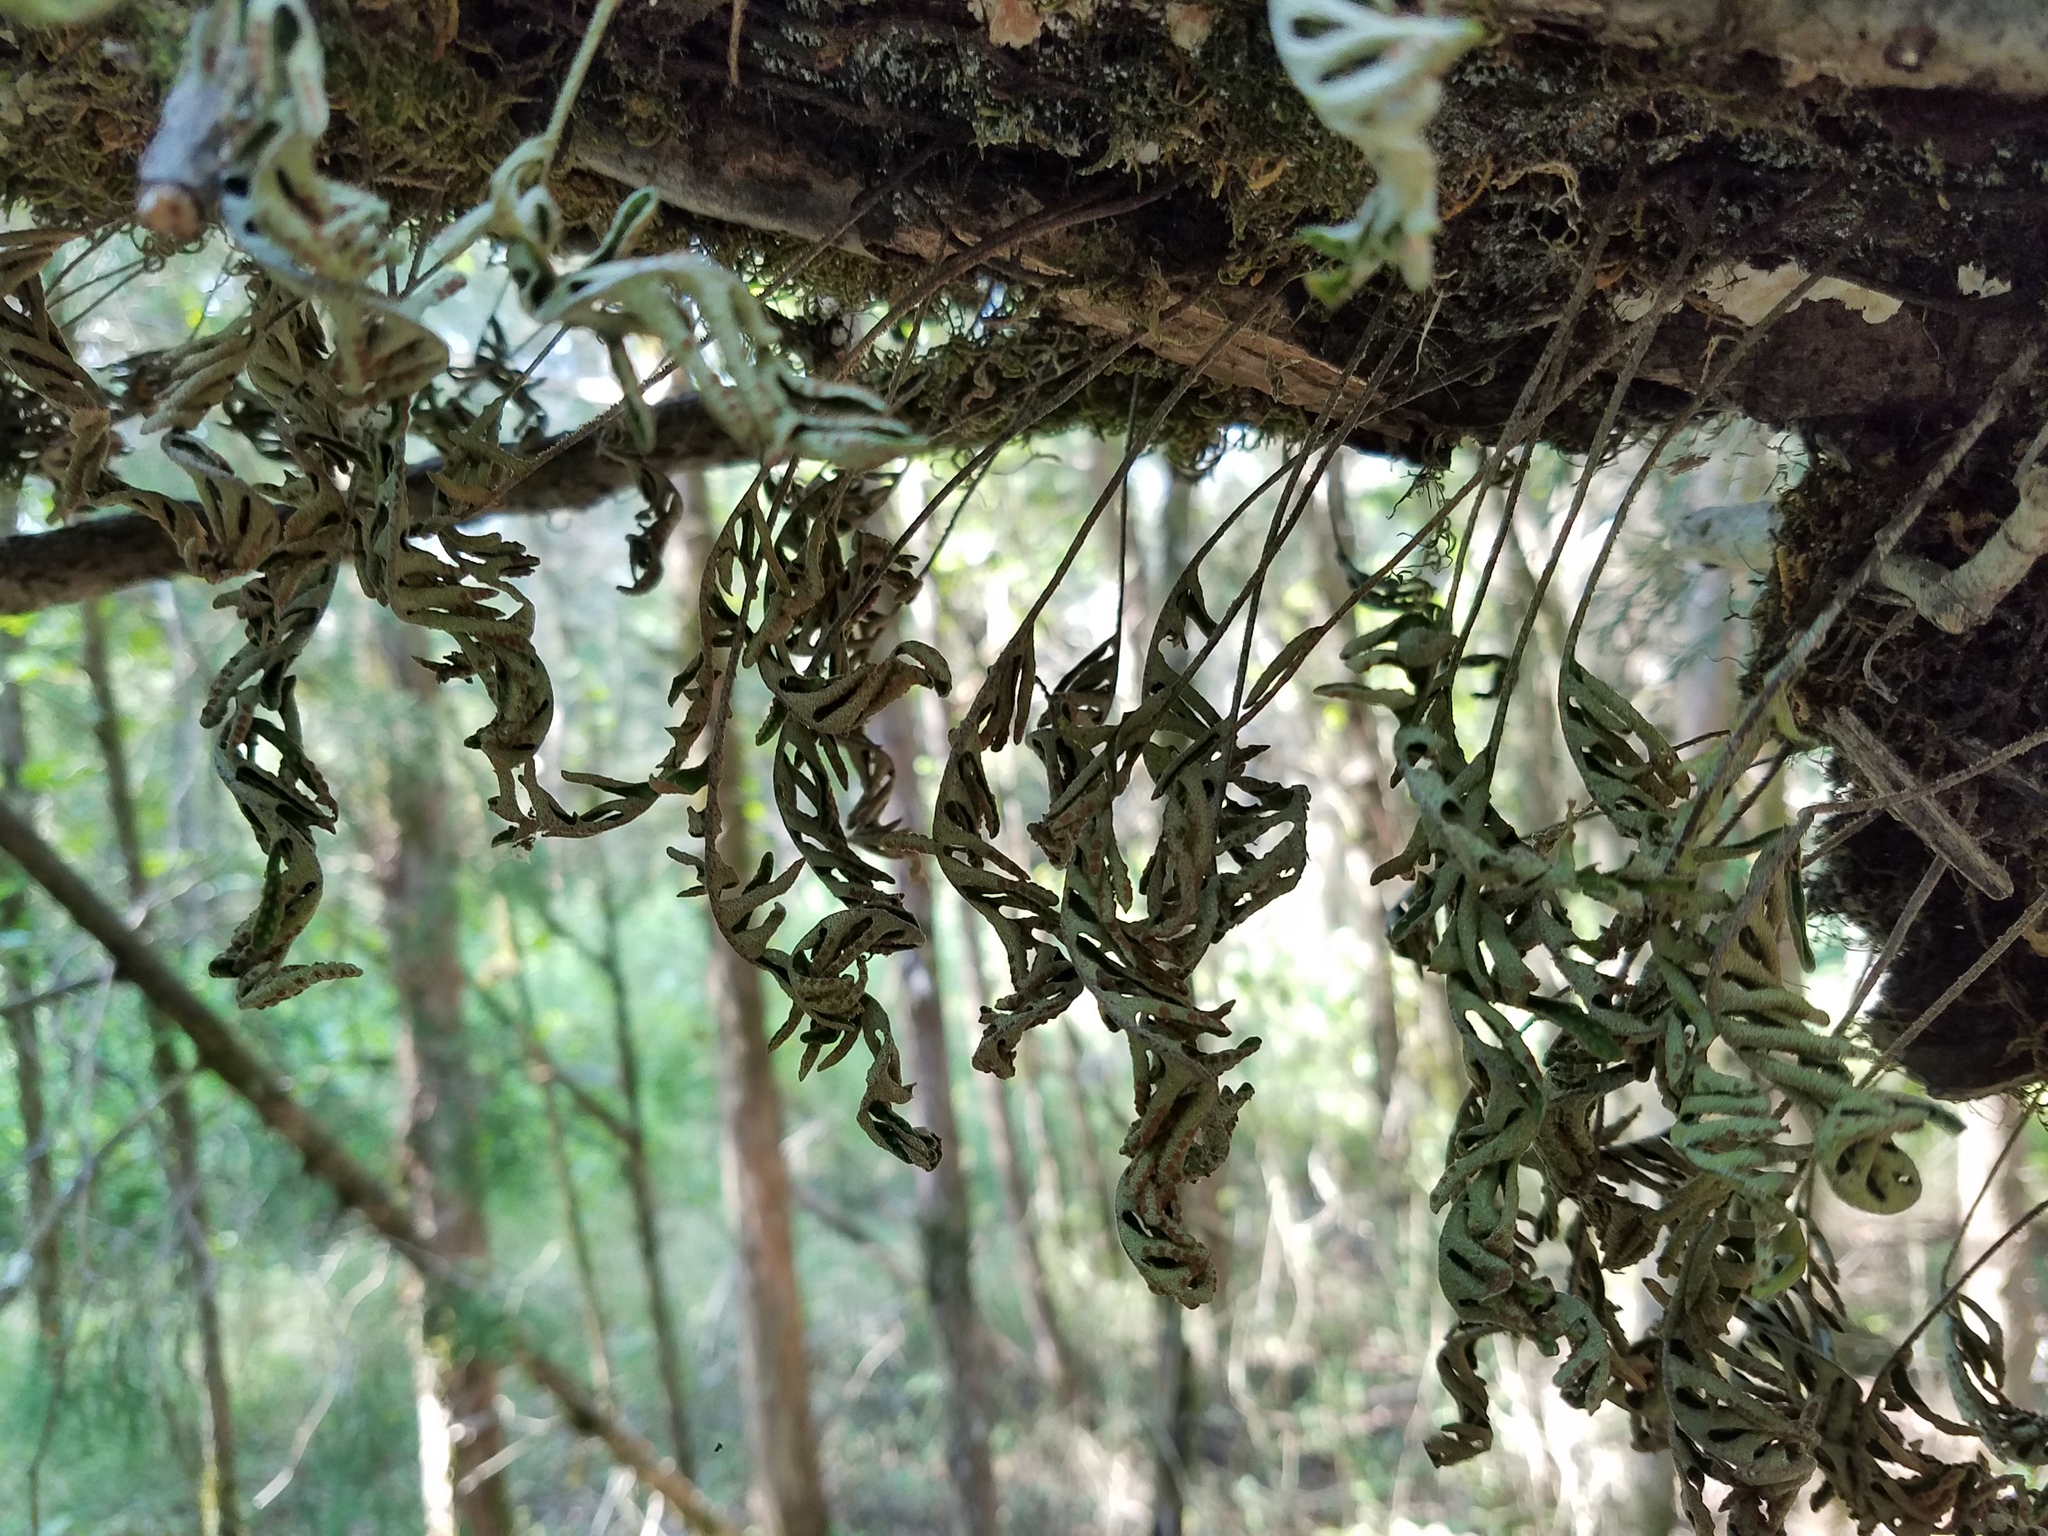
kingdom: Plantae
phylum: Tracheophyta
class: Polypodiopsida
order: Polypodiales
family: Polypodiaceae
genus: Pleopeltis
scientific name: Pleopeltis michauxiana
